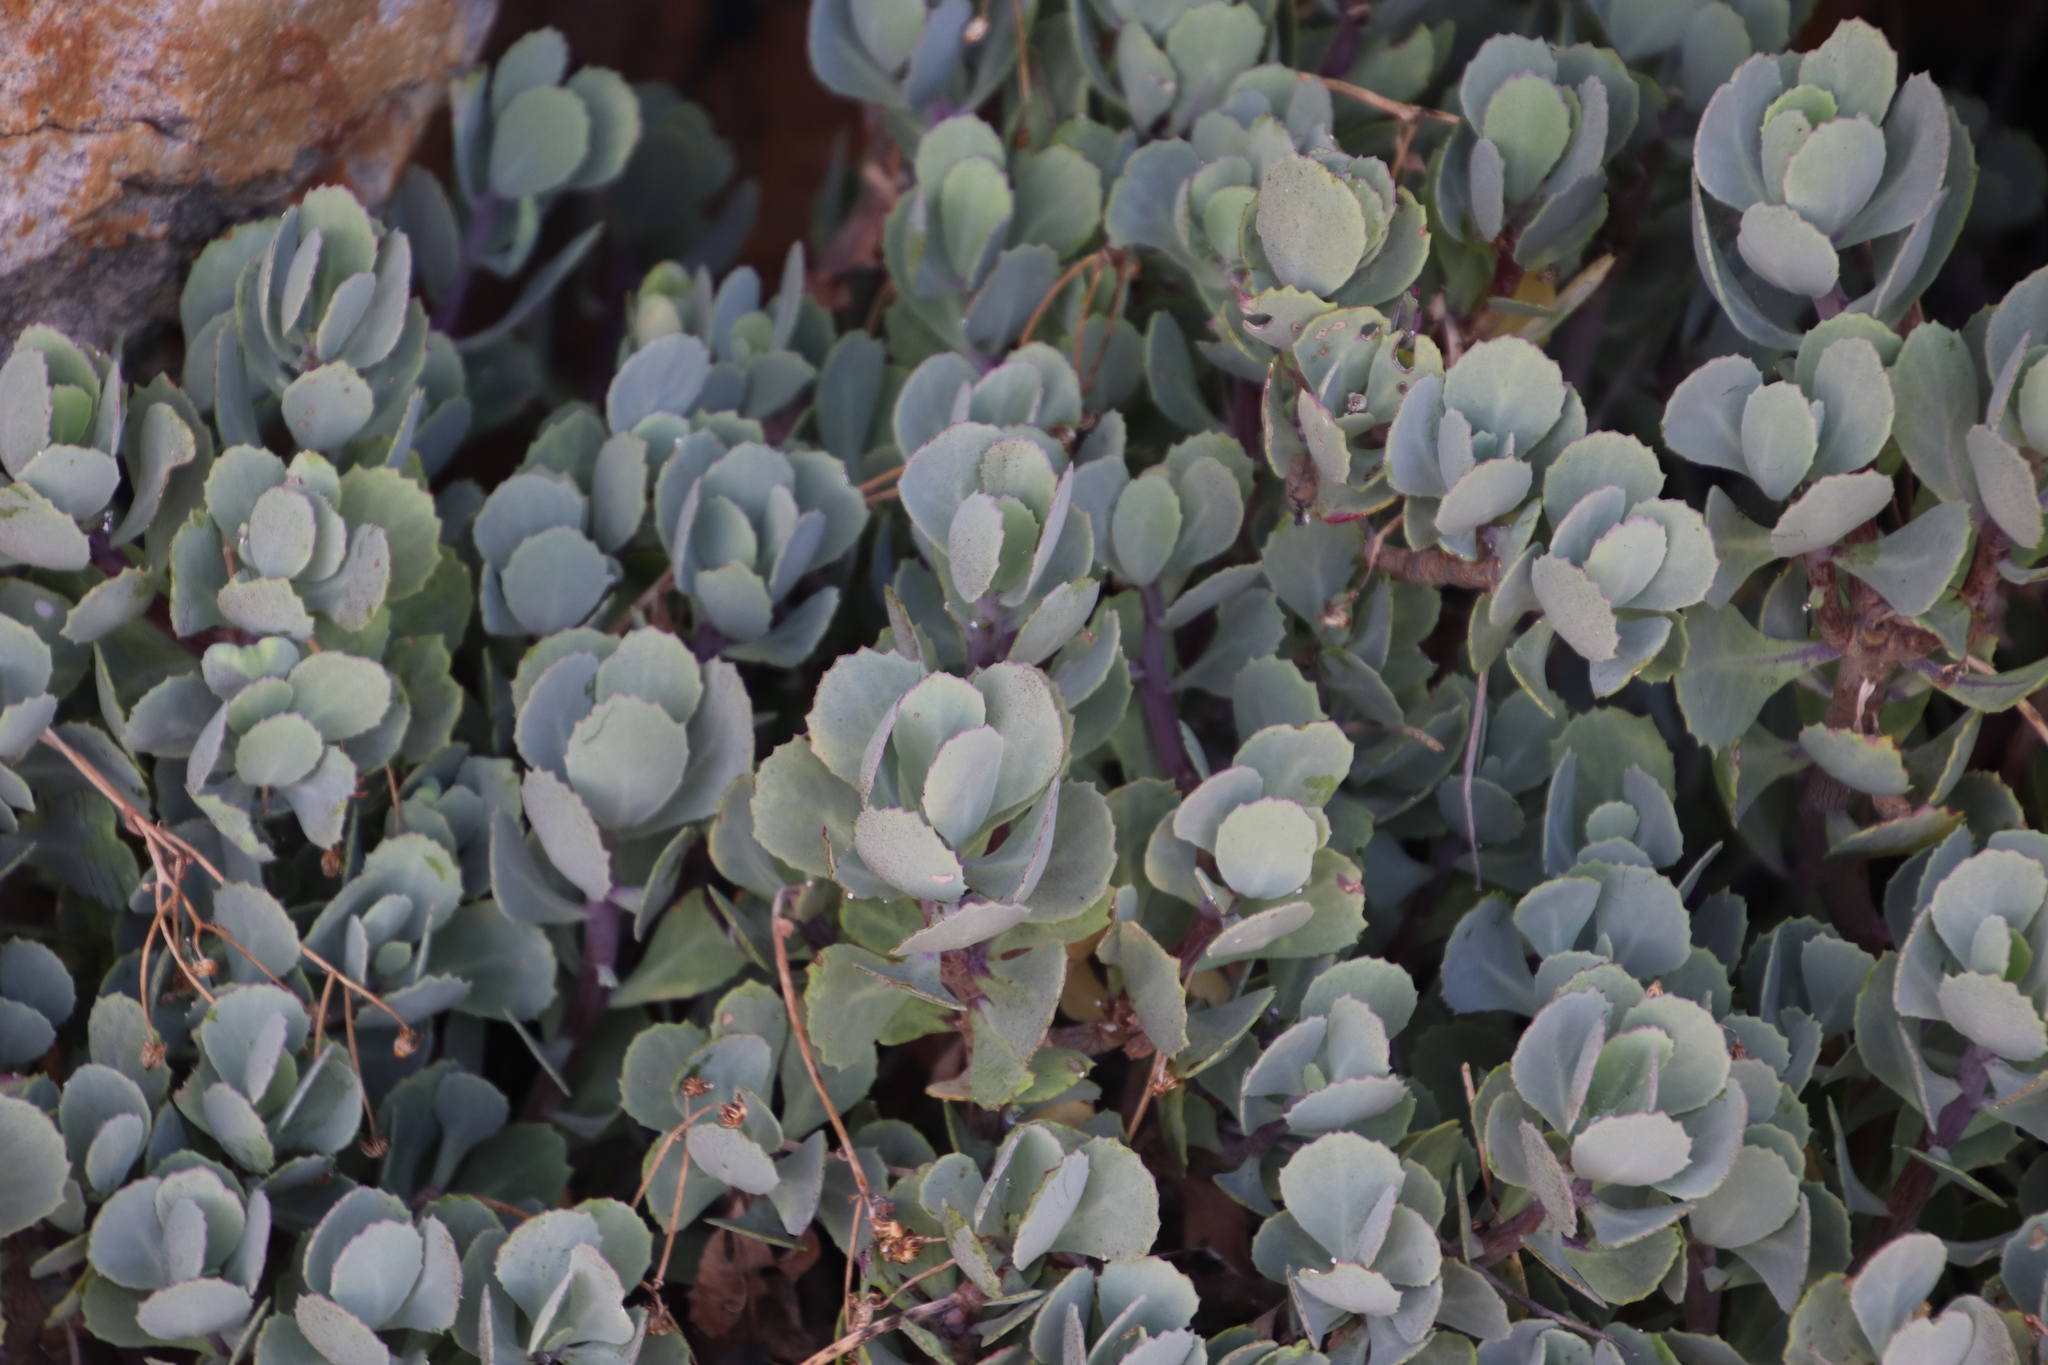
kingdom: Plantae
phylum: Tracheophyta
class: Magnoliopsida
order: Asterales
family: Asteraceae
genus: Othonna
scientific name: Othonna dentata
